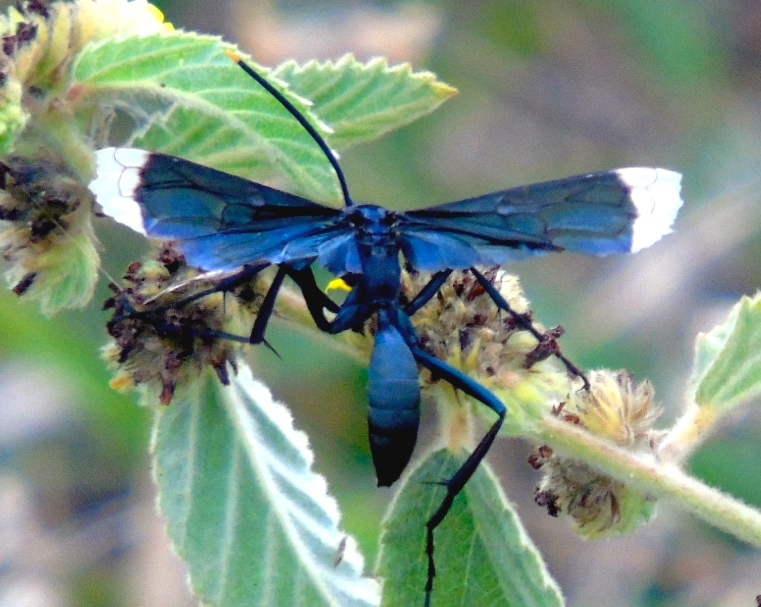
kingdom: Animalia
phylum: Arthropoda
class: Insecta
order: Hymenoptera
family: Pompilidae
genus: Pepsis
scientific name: Pepsis
